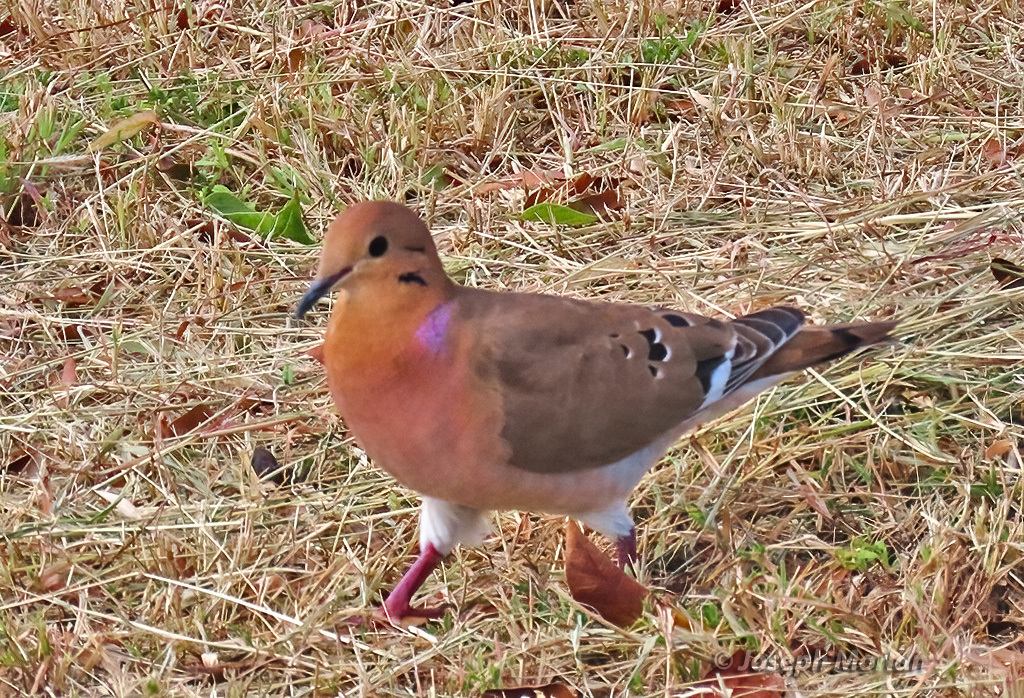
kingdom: Animalia
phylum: Chordata
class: Aves
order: Columbiformes
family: Columbidae
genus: Zenaida
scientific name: Zenaida aurita
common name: Zenaida dove
